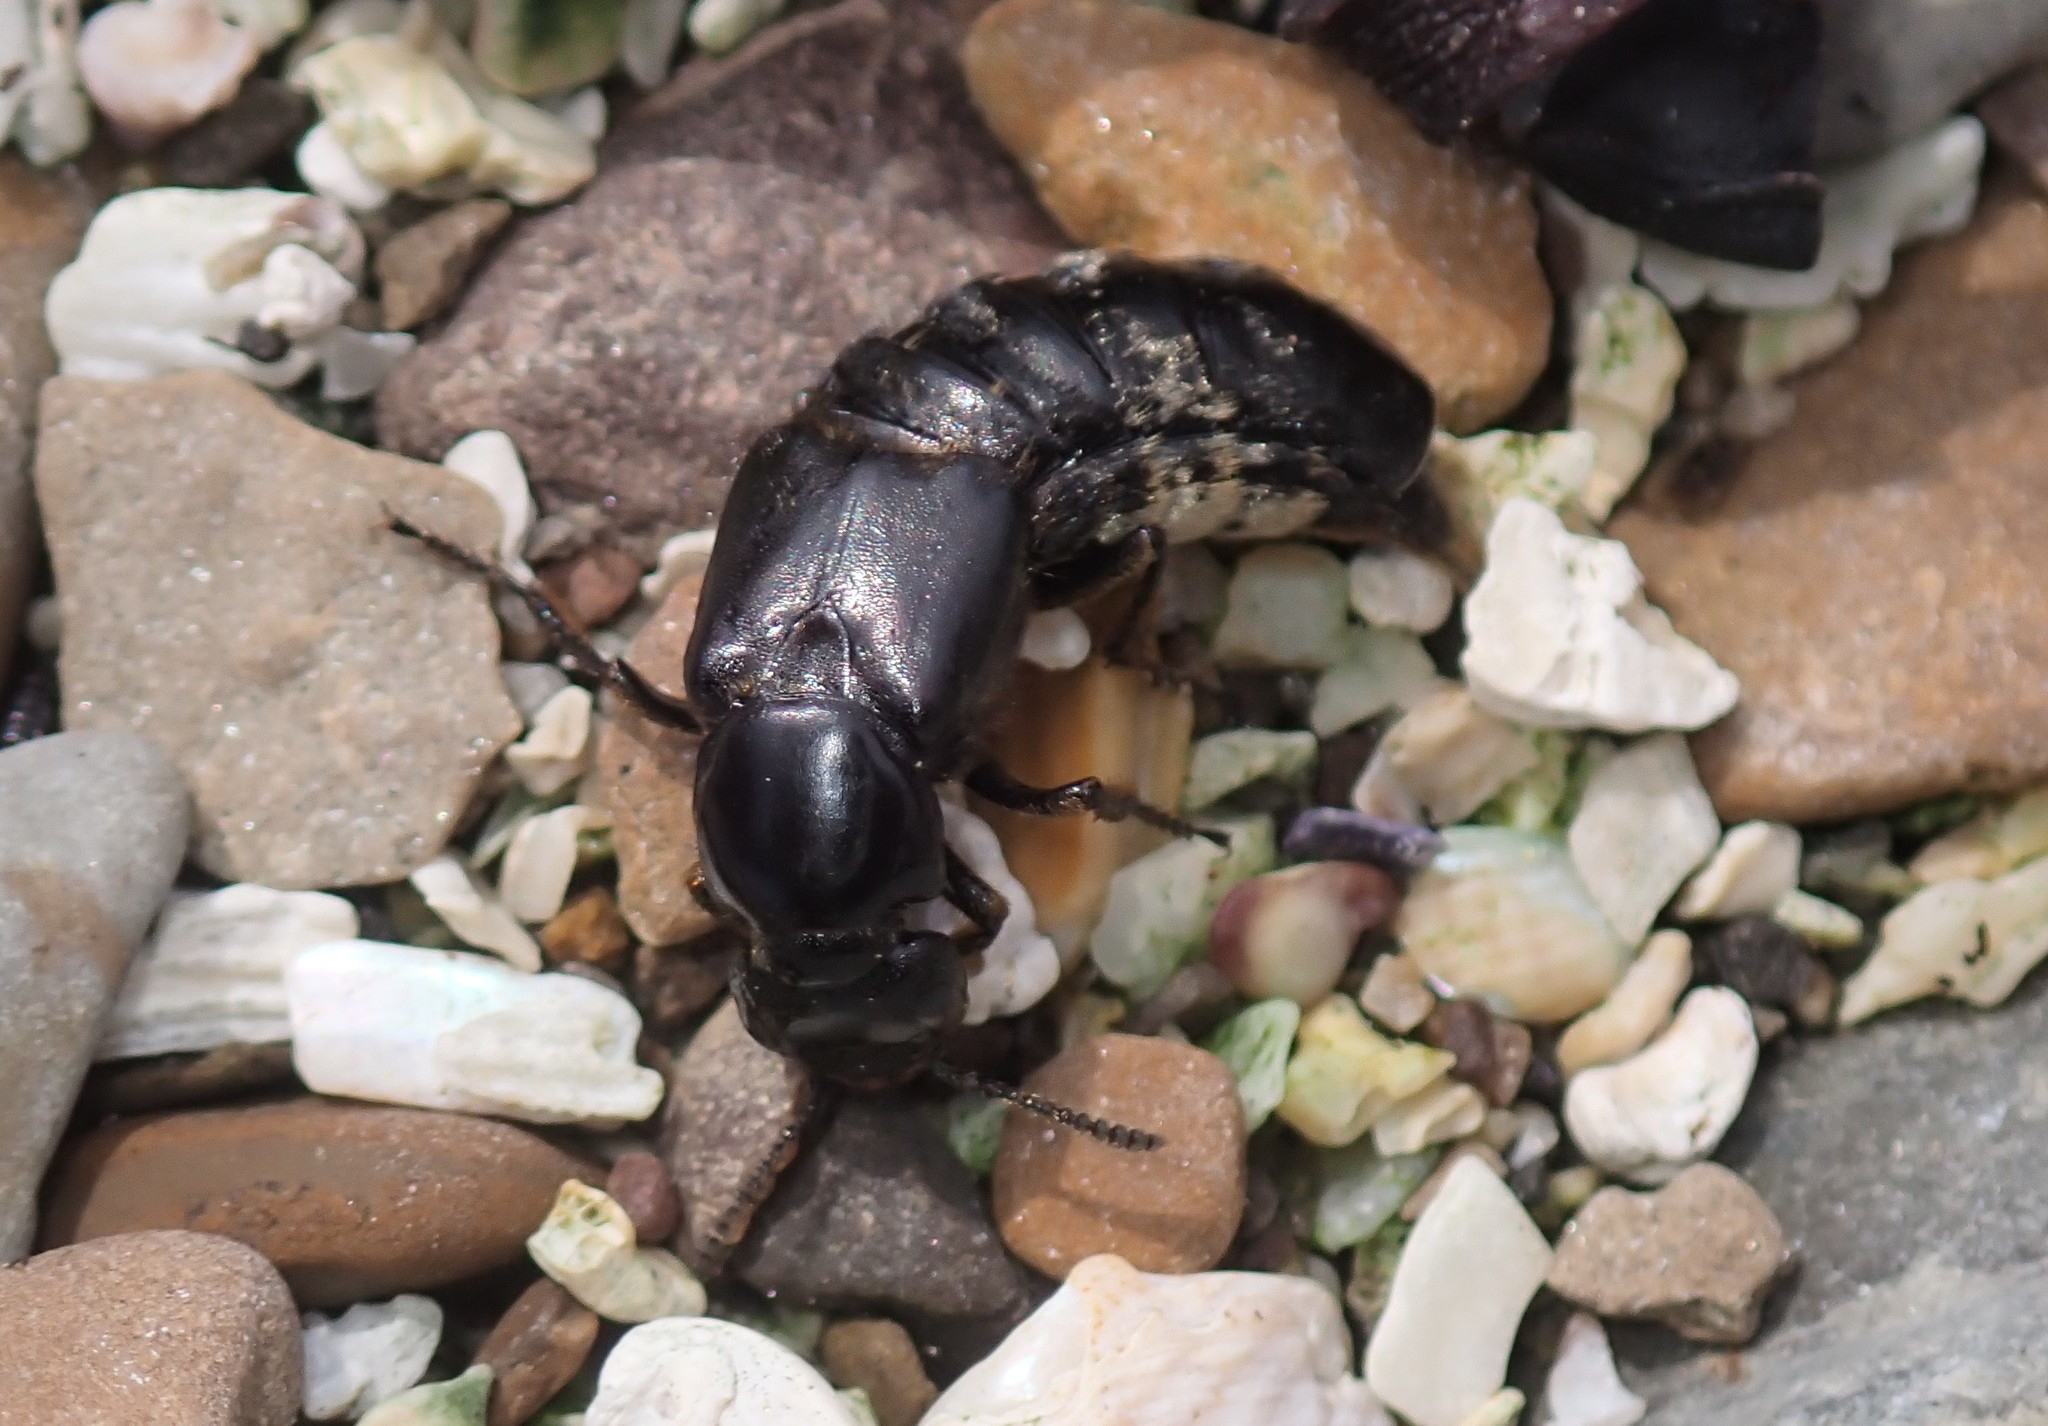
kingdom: Animalia
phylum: Arthropoda
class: Insecta
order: Coleoptera
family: Staphylinidae
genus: Creophilus
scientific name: Creophilus maxillosus
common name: Hairy rove beetle
